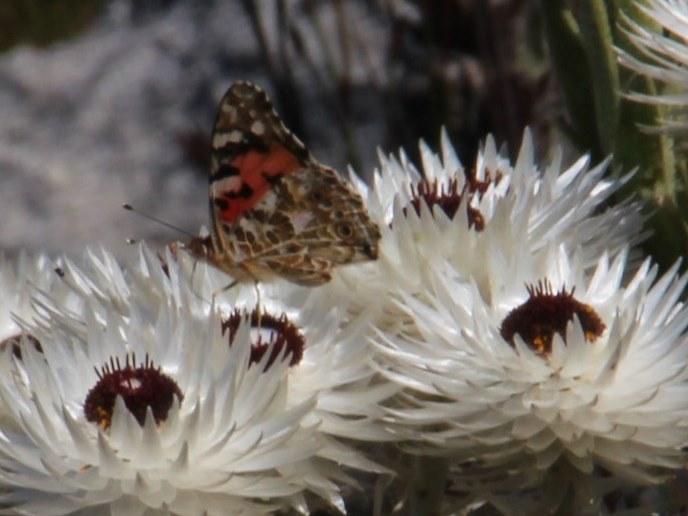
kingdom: Animalia
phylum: Arthropoda
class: Insecta
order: Lepidoptera
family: Nymphalidae
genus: Vanessa
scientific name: Vanessa cardui
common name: Painted lady
